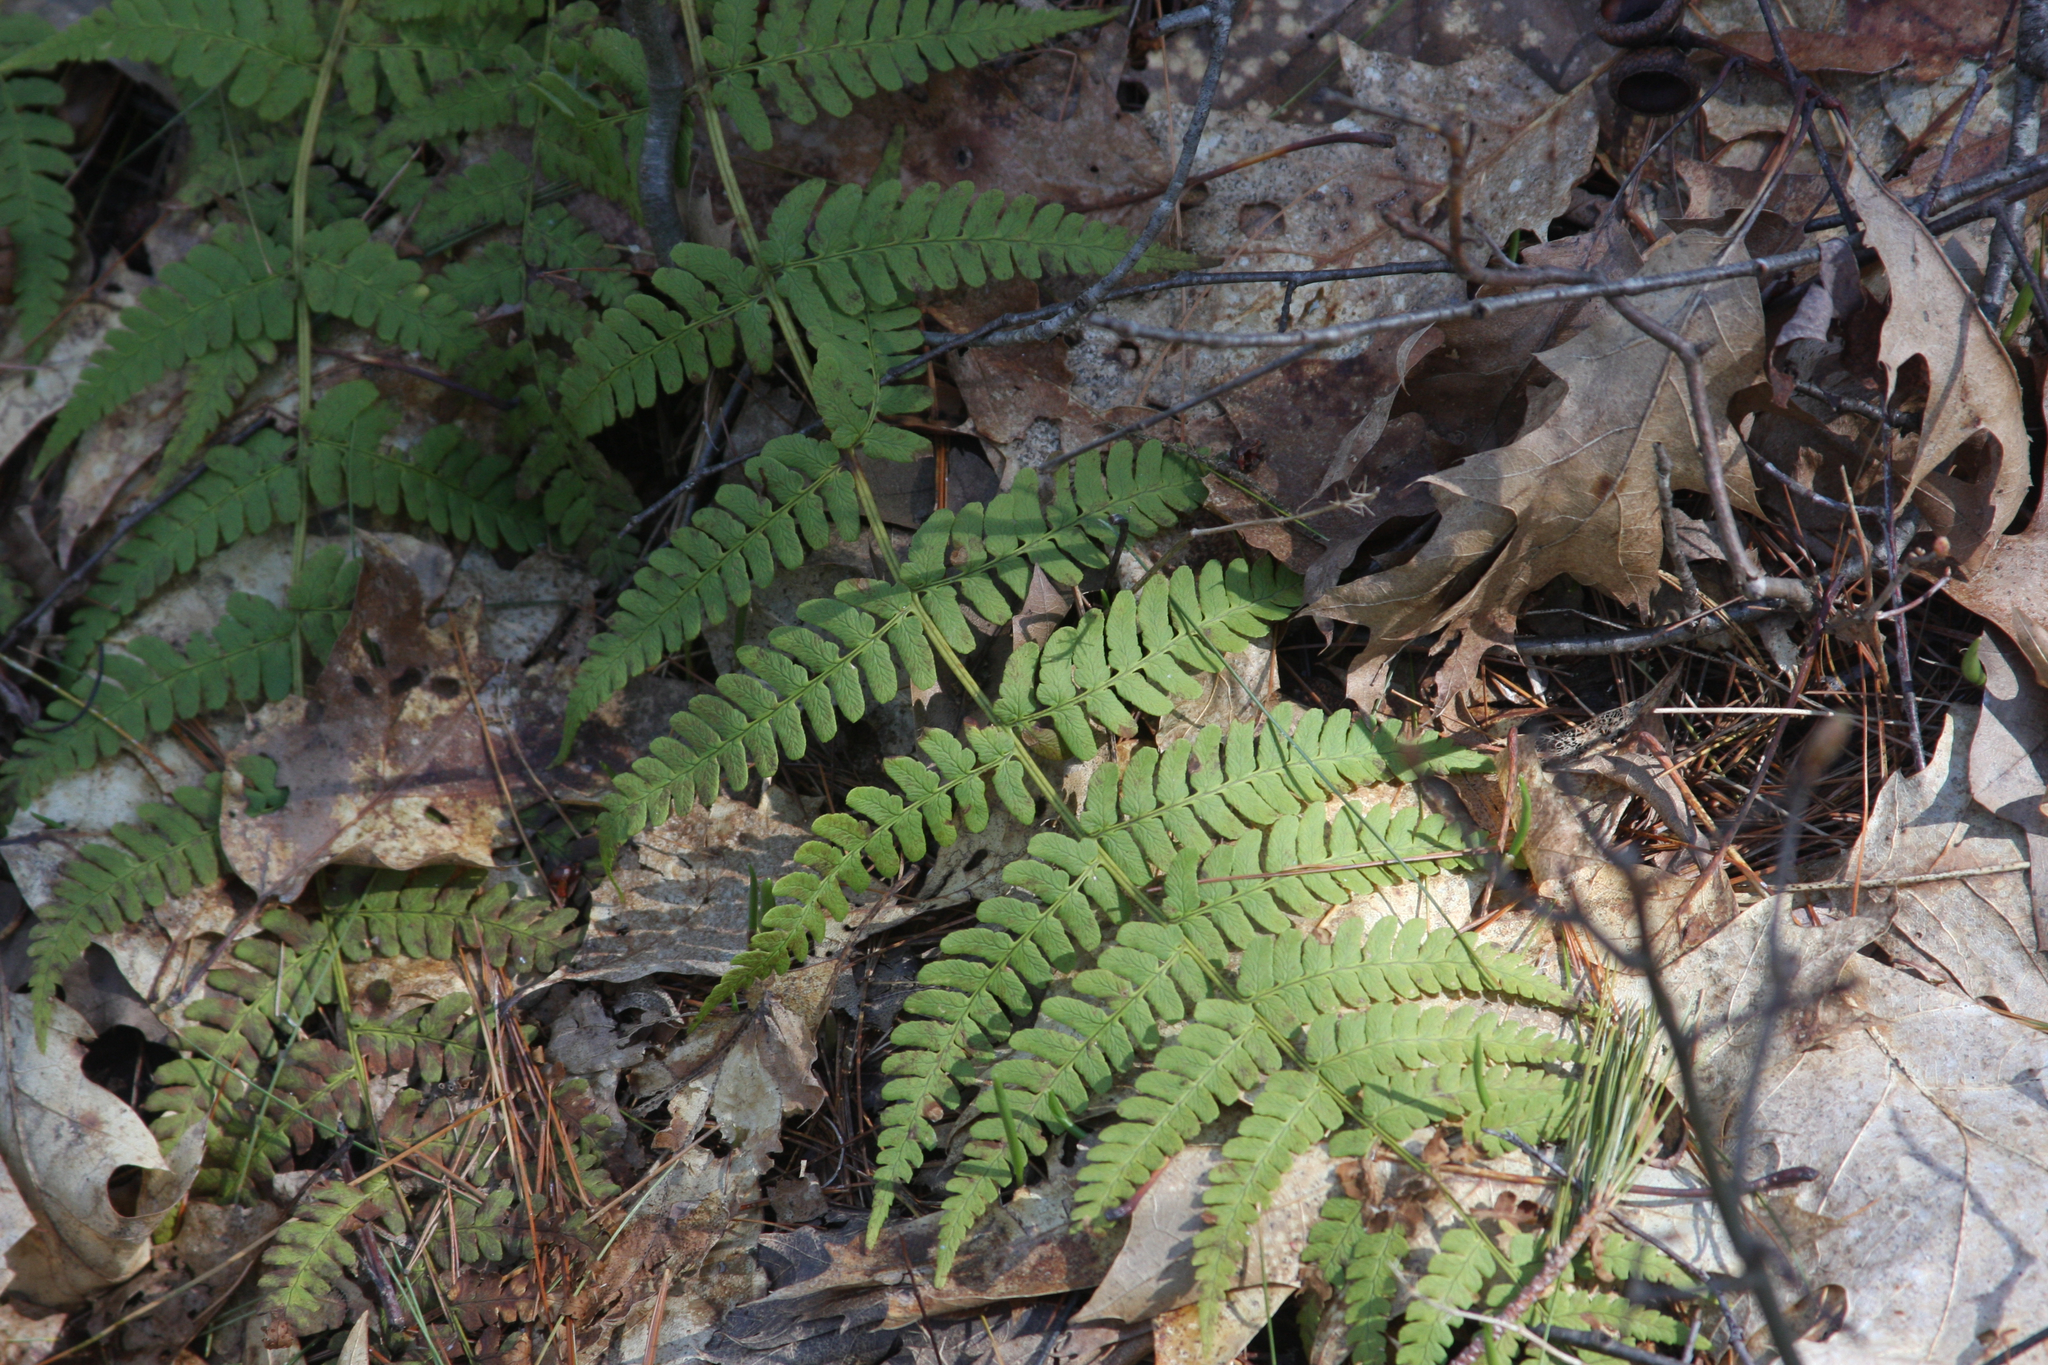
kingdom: Plantae
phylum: Tracheophyta
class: Polypodiopsida
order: Polypodiales
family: Dryopteridaceae
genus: Dryopteris
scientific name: Dryopteris marginalis
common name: Marginal wood fern
